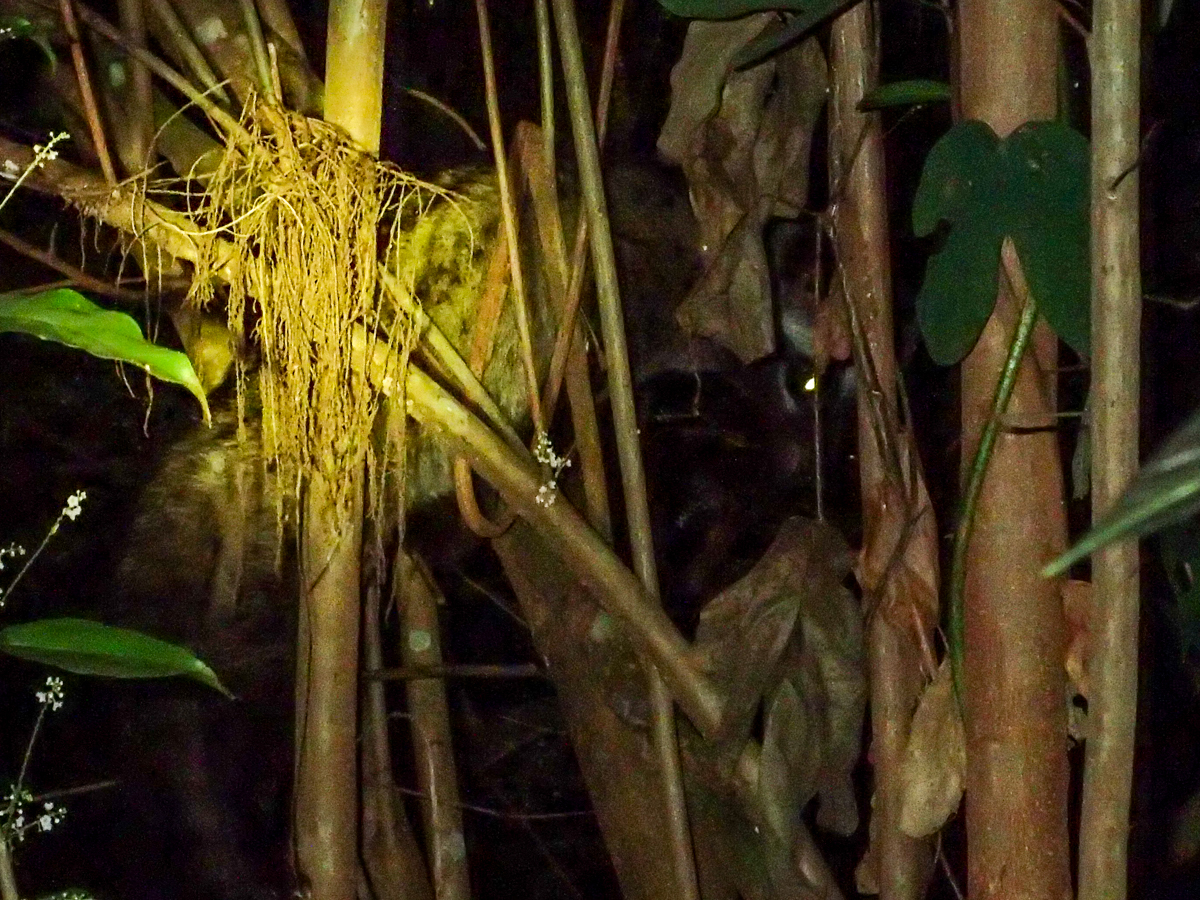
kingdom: Animalia
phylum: Chordata
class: Mammalia
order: Carnivora
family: Viverridae
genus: Paradoxurus
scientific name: Paradoxurus hermaphroditus
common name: Common palm civet
